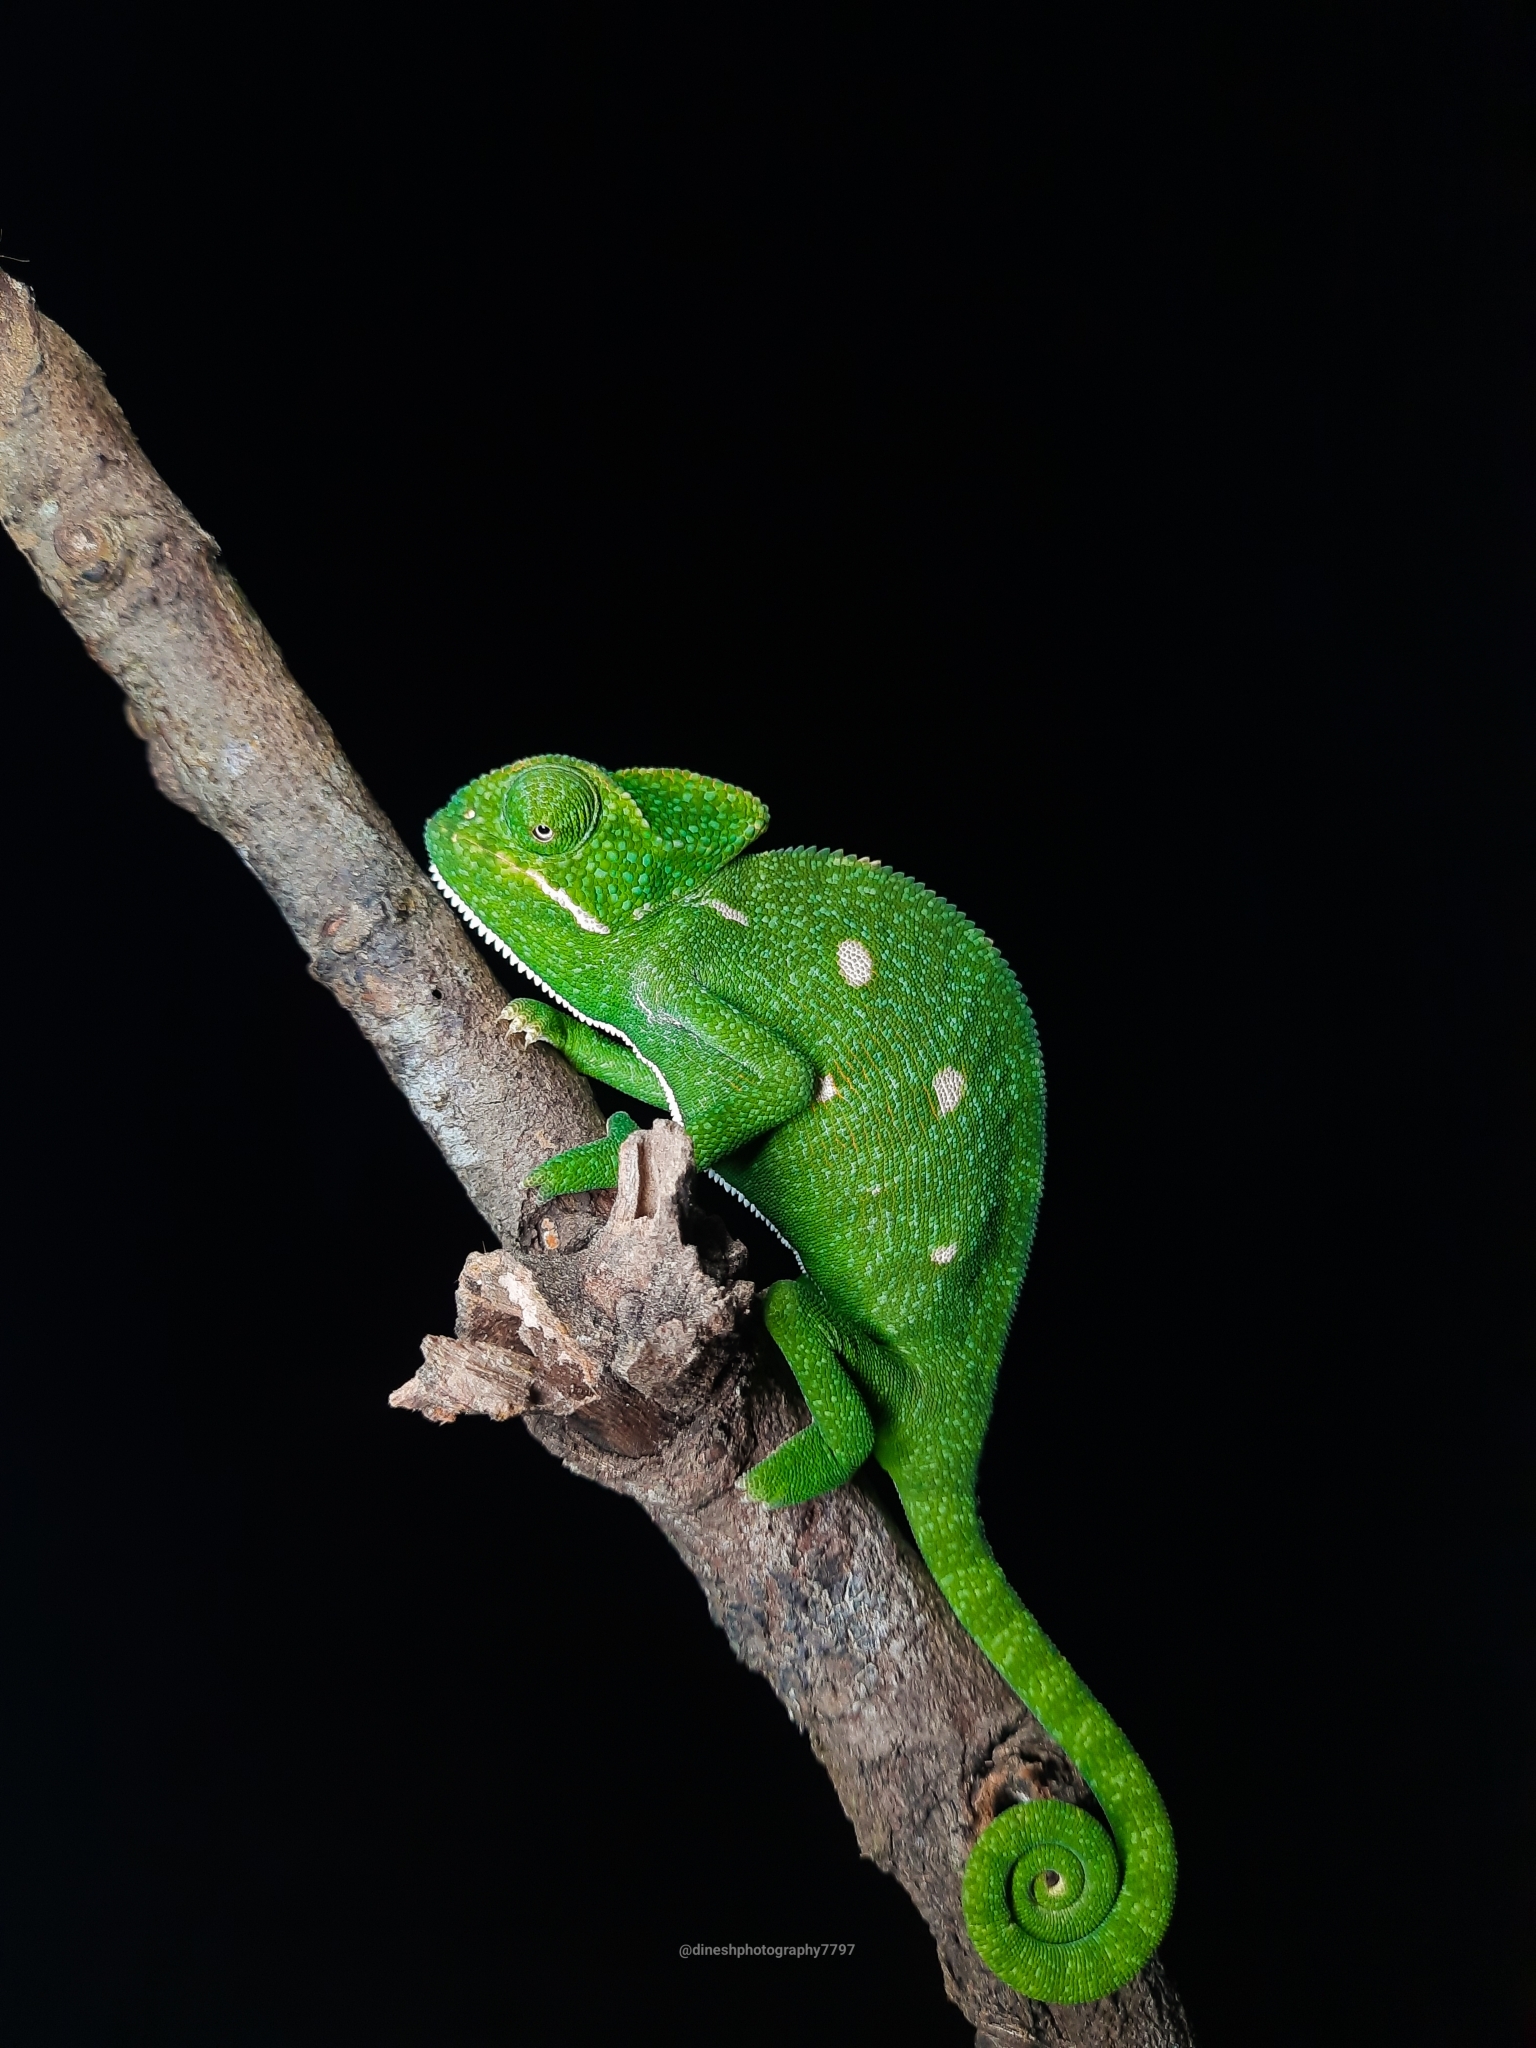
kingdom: Animalia
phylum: Chordata
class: Squamata
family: Chamaeleonidae
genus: Chamaeleo
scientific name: Chamaeleo zeylanicus
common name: Indian chameleon
